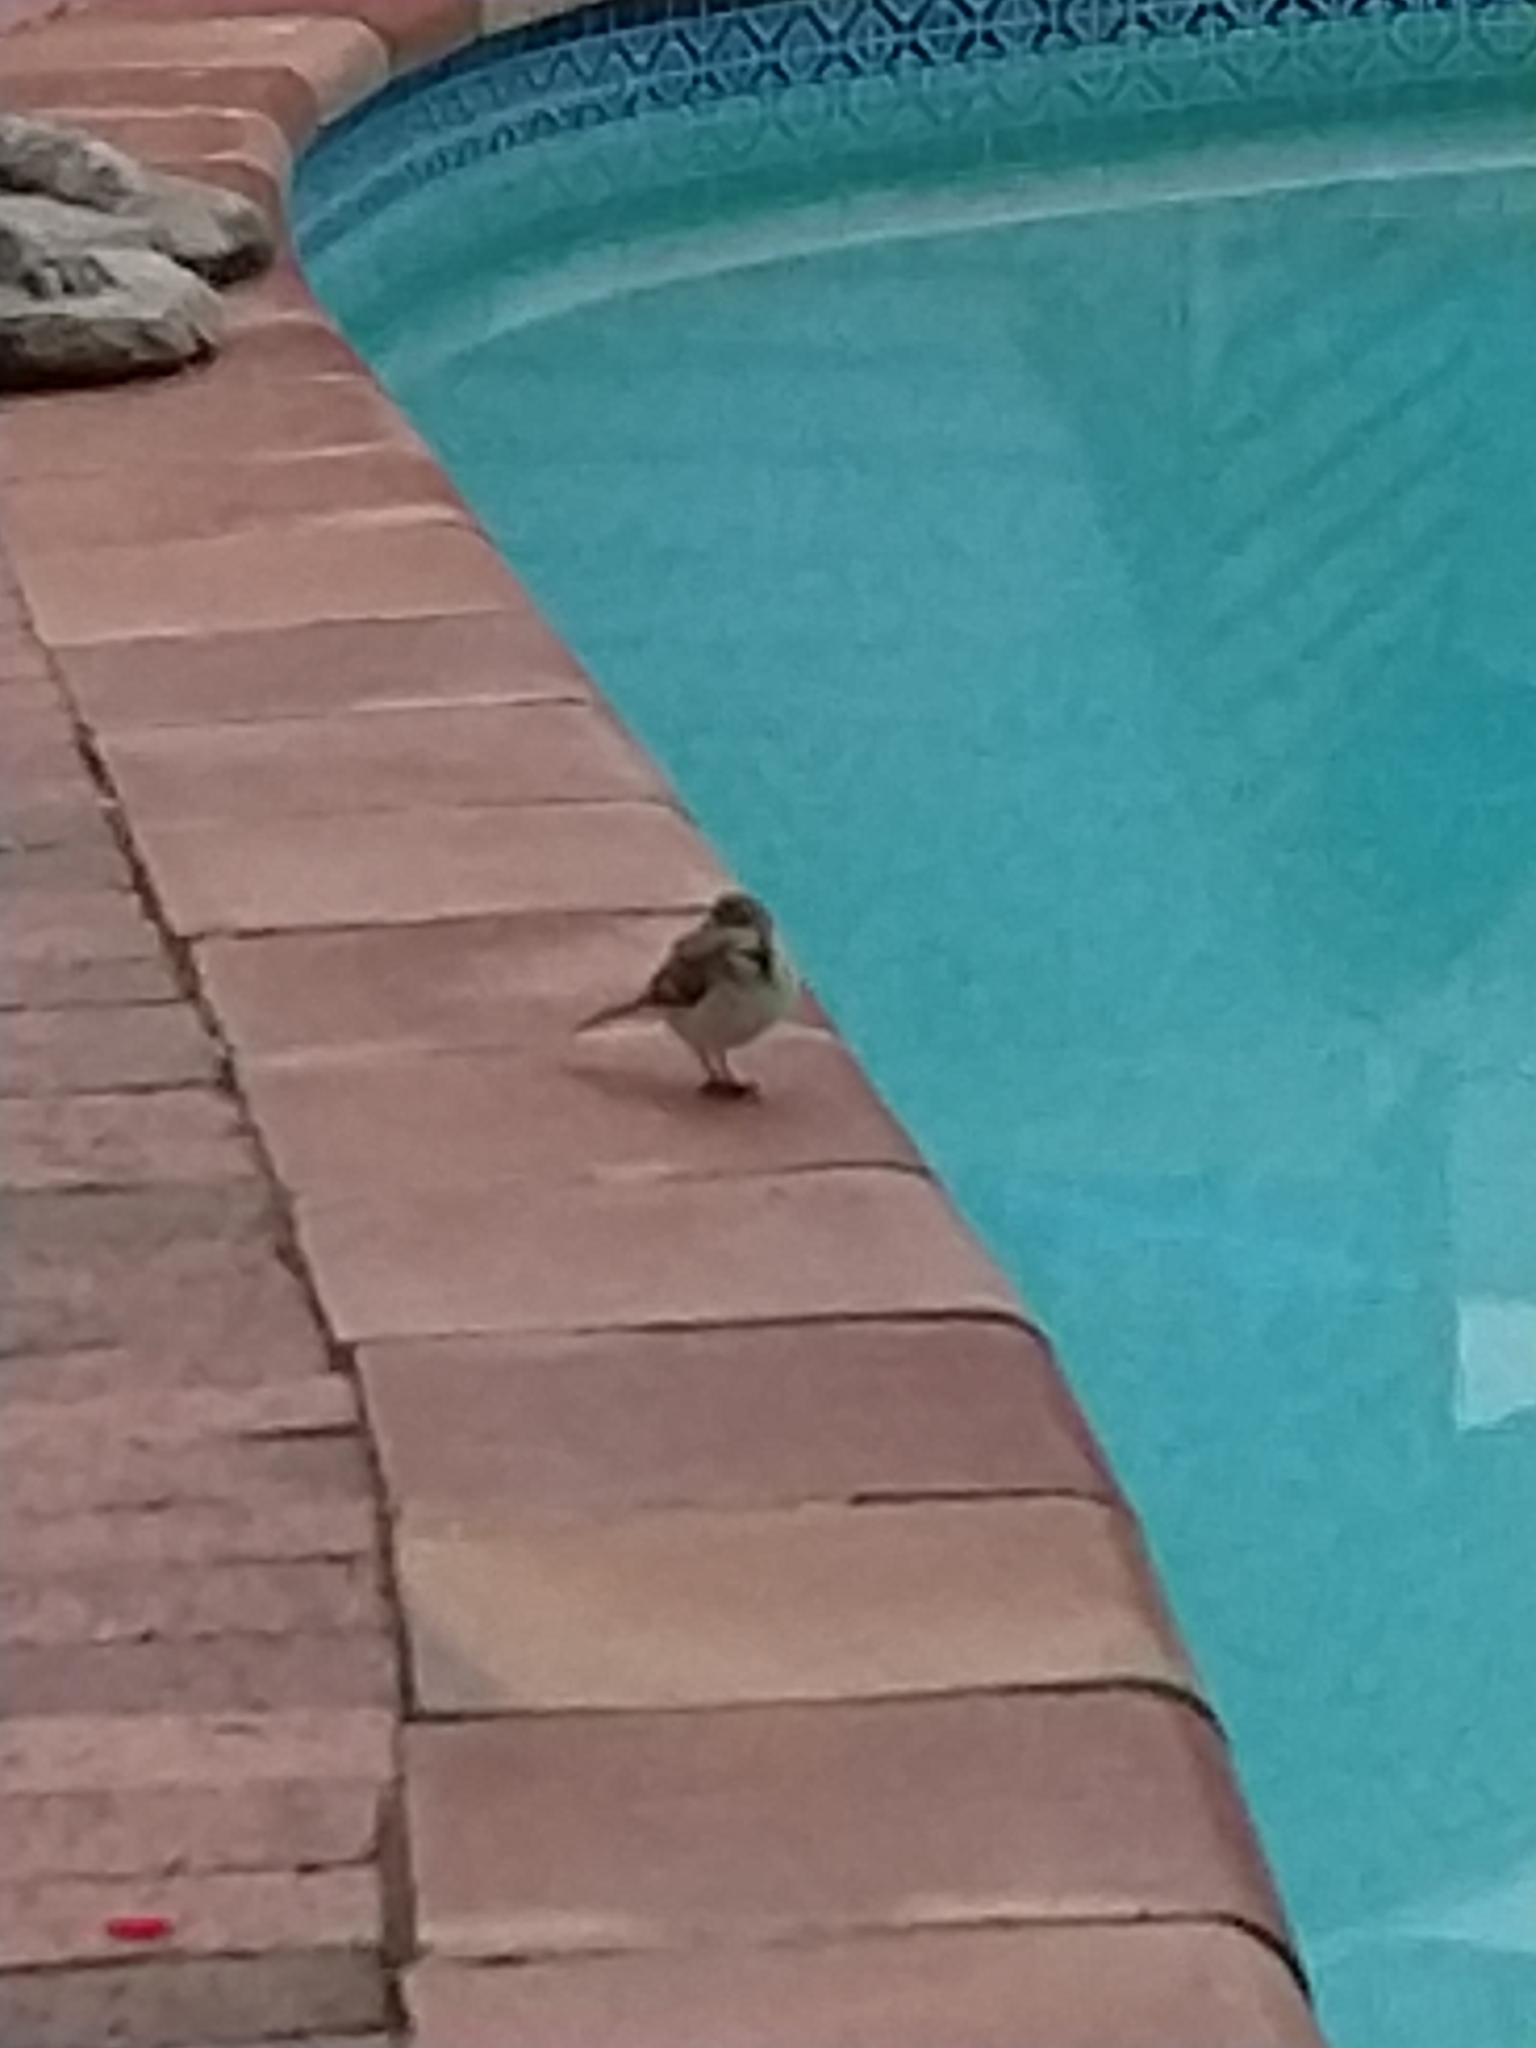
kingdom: Animalia
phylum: Chordata
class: Aves
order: Passeriformes
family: Motacillidae
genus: Motacilla
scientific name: Motacilla capensis
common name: Cape wagtail
